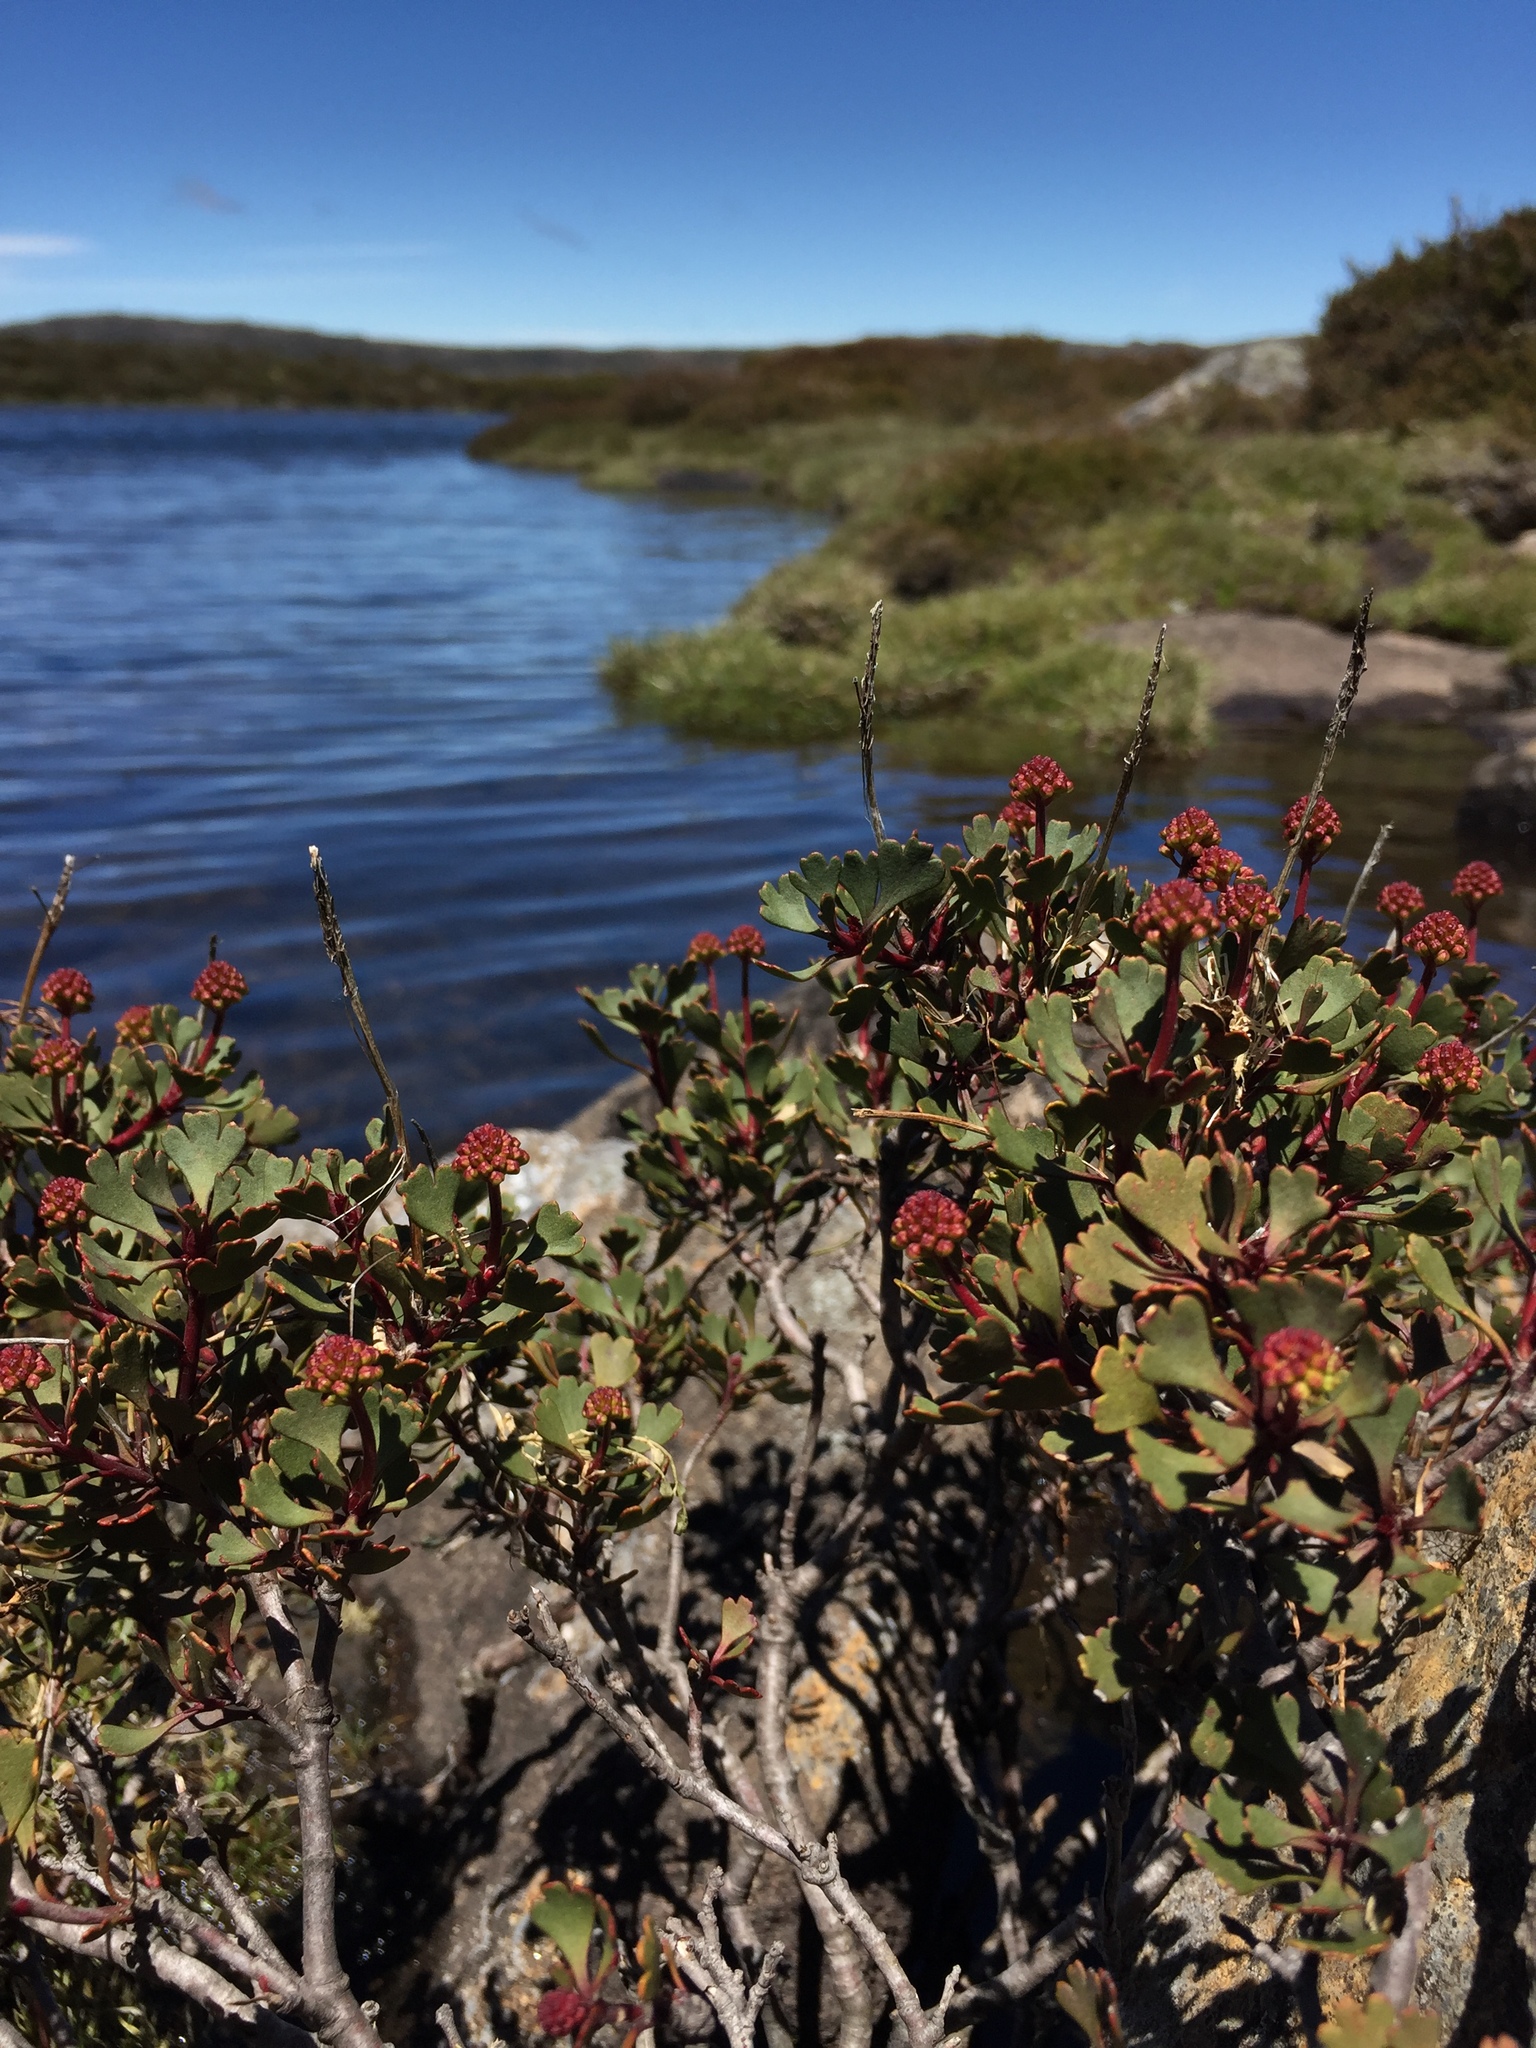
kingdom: Plantae
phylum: Tracheophyta
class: Magnoliopsida
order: Proteales
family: Proteaceae
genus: Bellendena
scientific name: Bellendena montana
